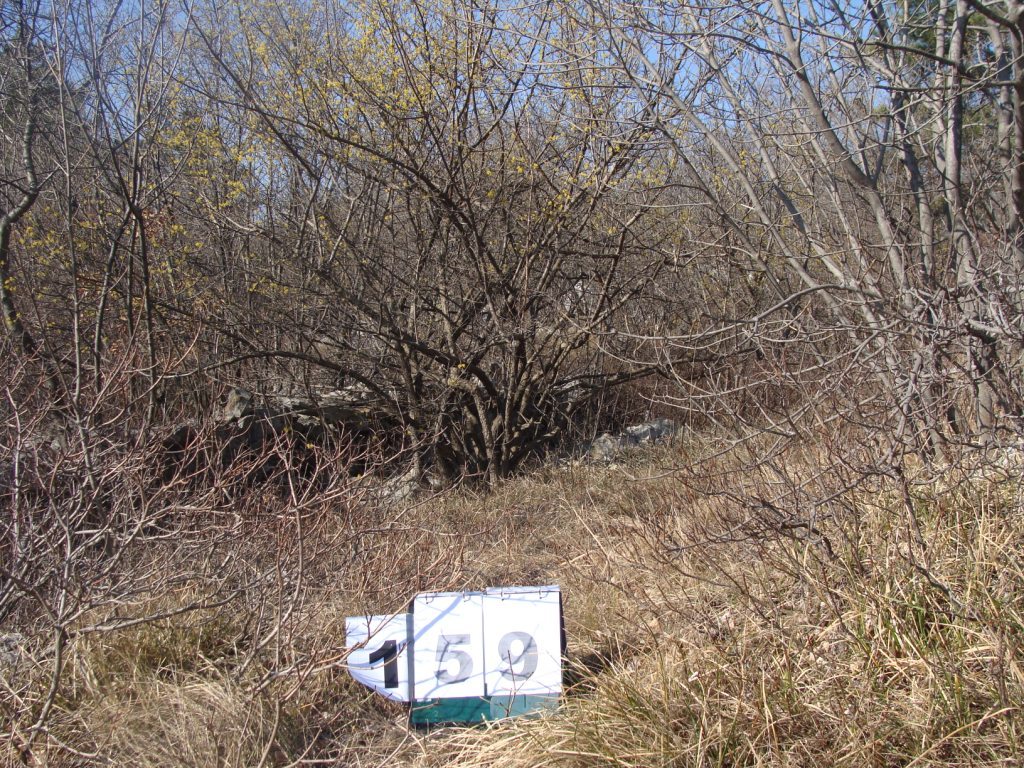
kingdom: Plantae
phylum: Tracheophyta
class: Magnoliopsida
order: Cornales
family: Cornaceae
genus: Cornus
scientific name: Cornus mas
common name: Cornelian-cherry
